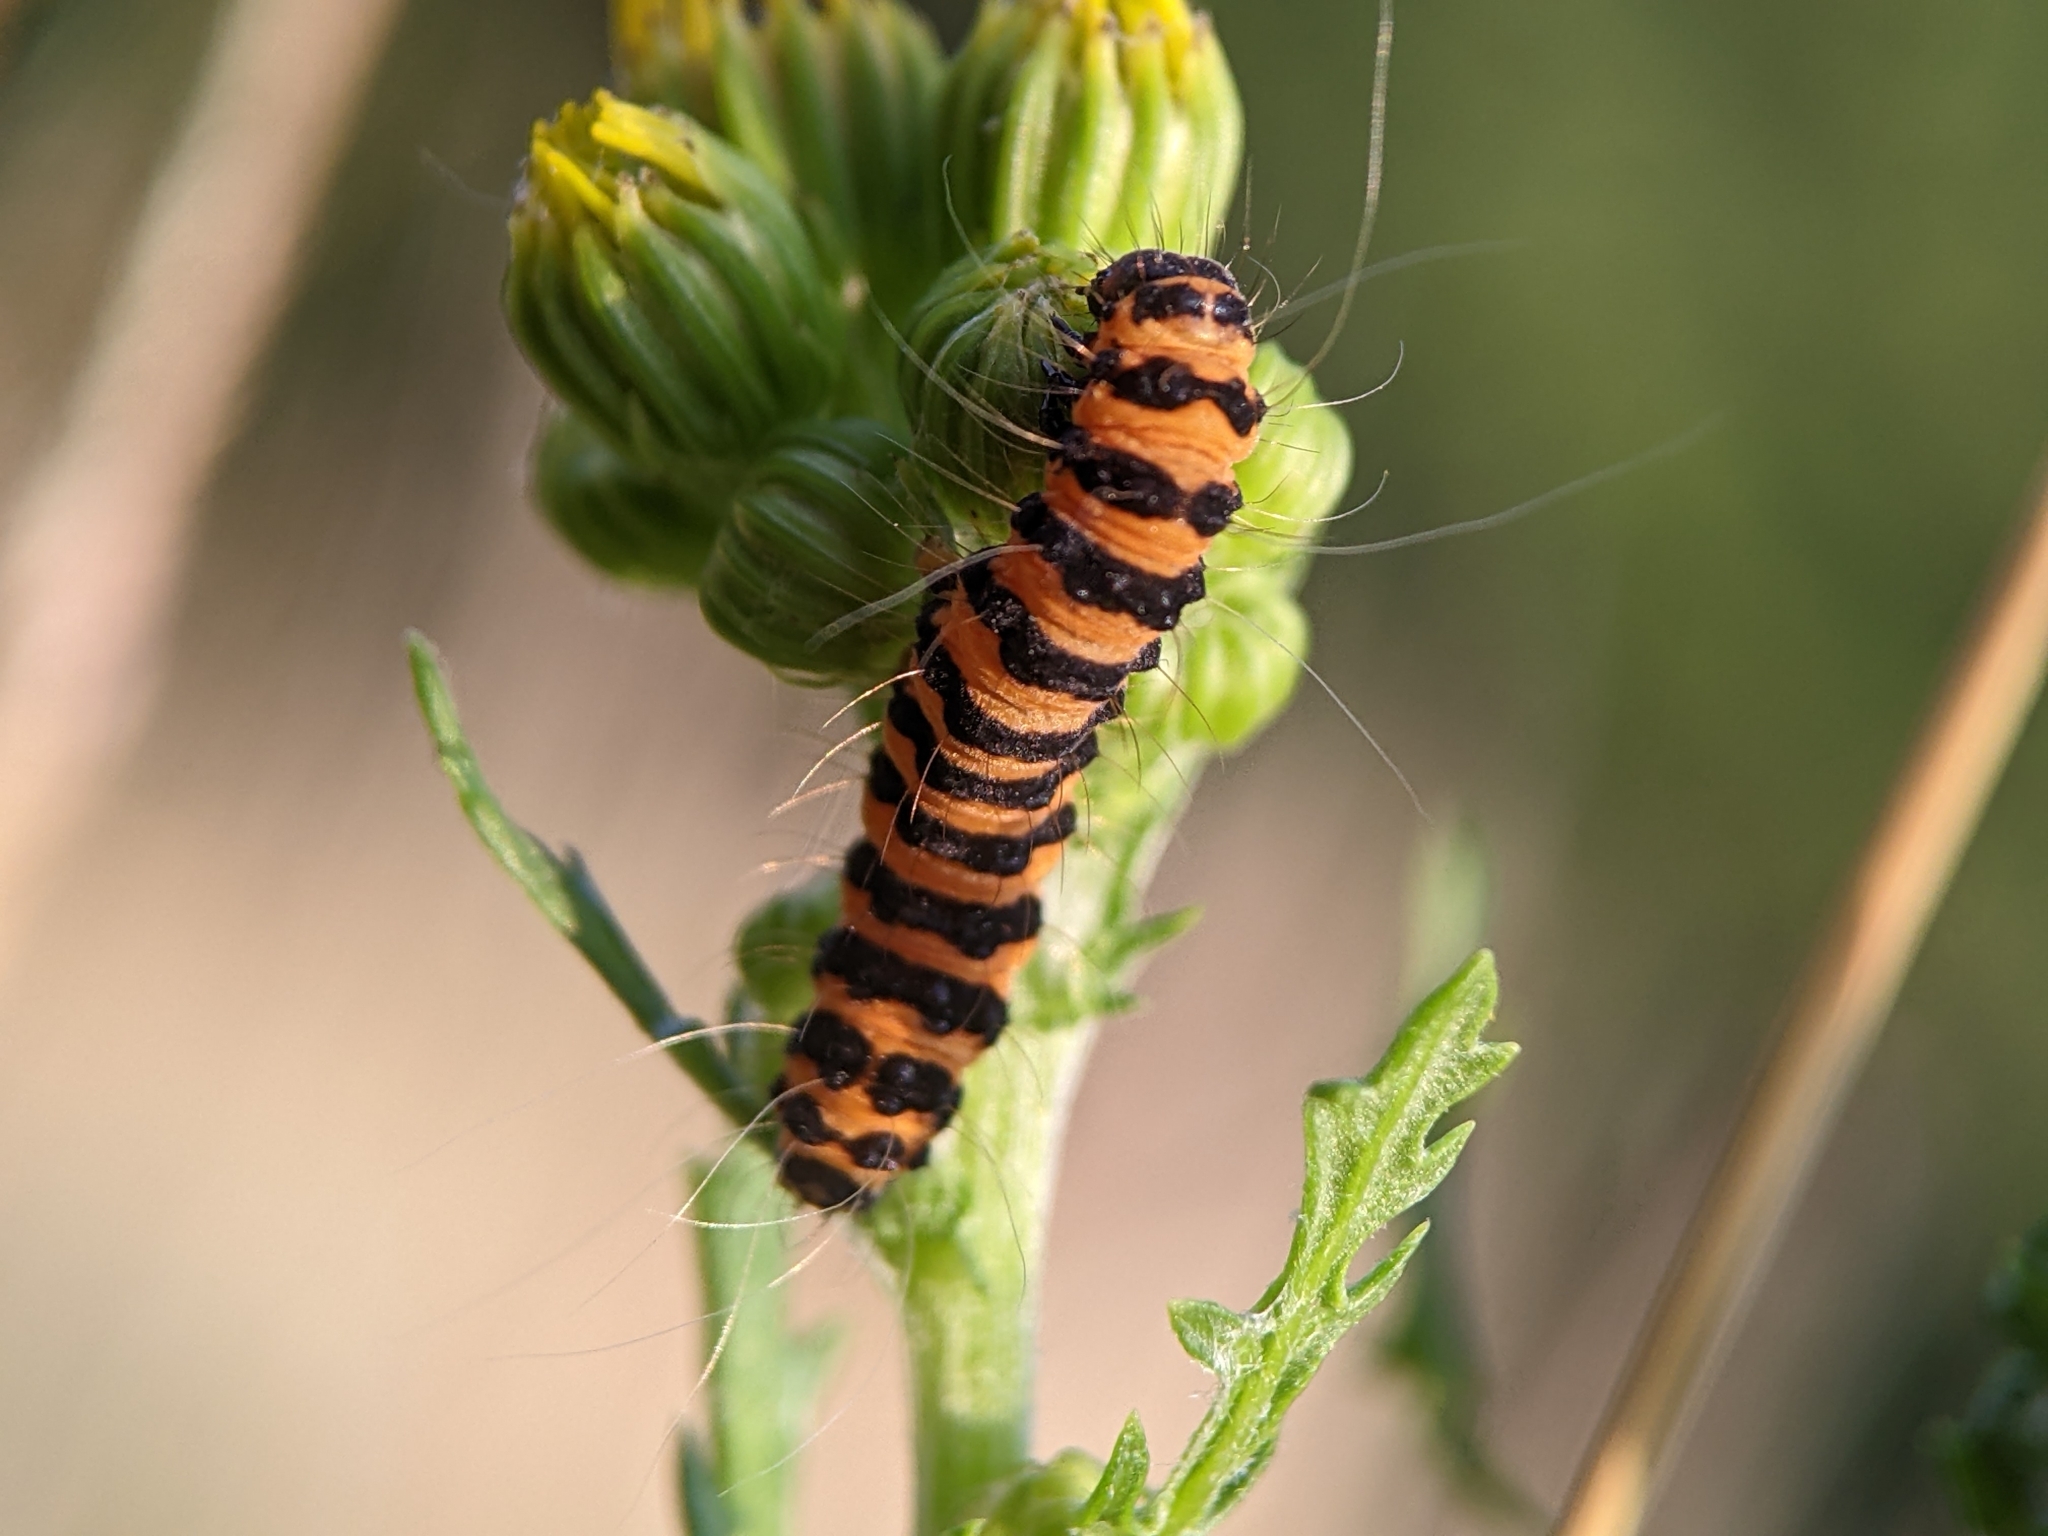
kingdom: Animalia
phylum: Arthropoda
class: Insecta
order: Lepidoptera
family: Erebidae
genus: Tyria
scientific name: Tyria jacobaeae
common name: Cinnabar
